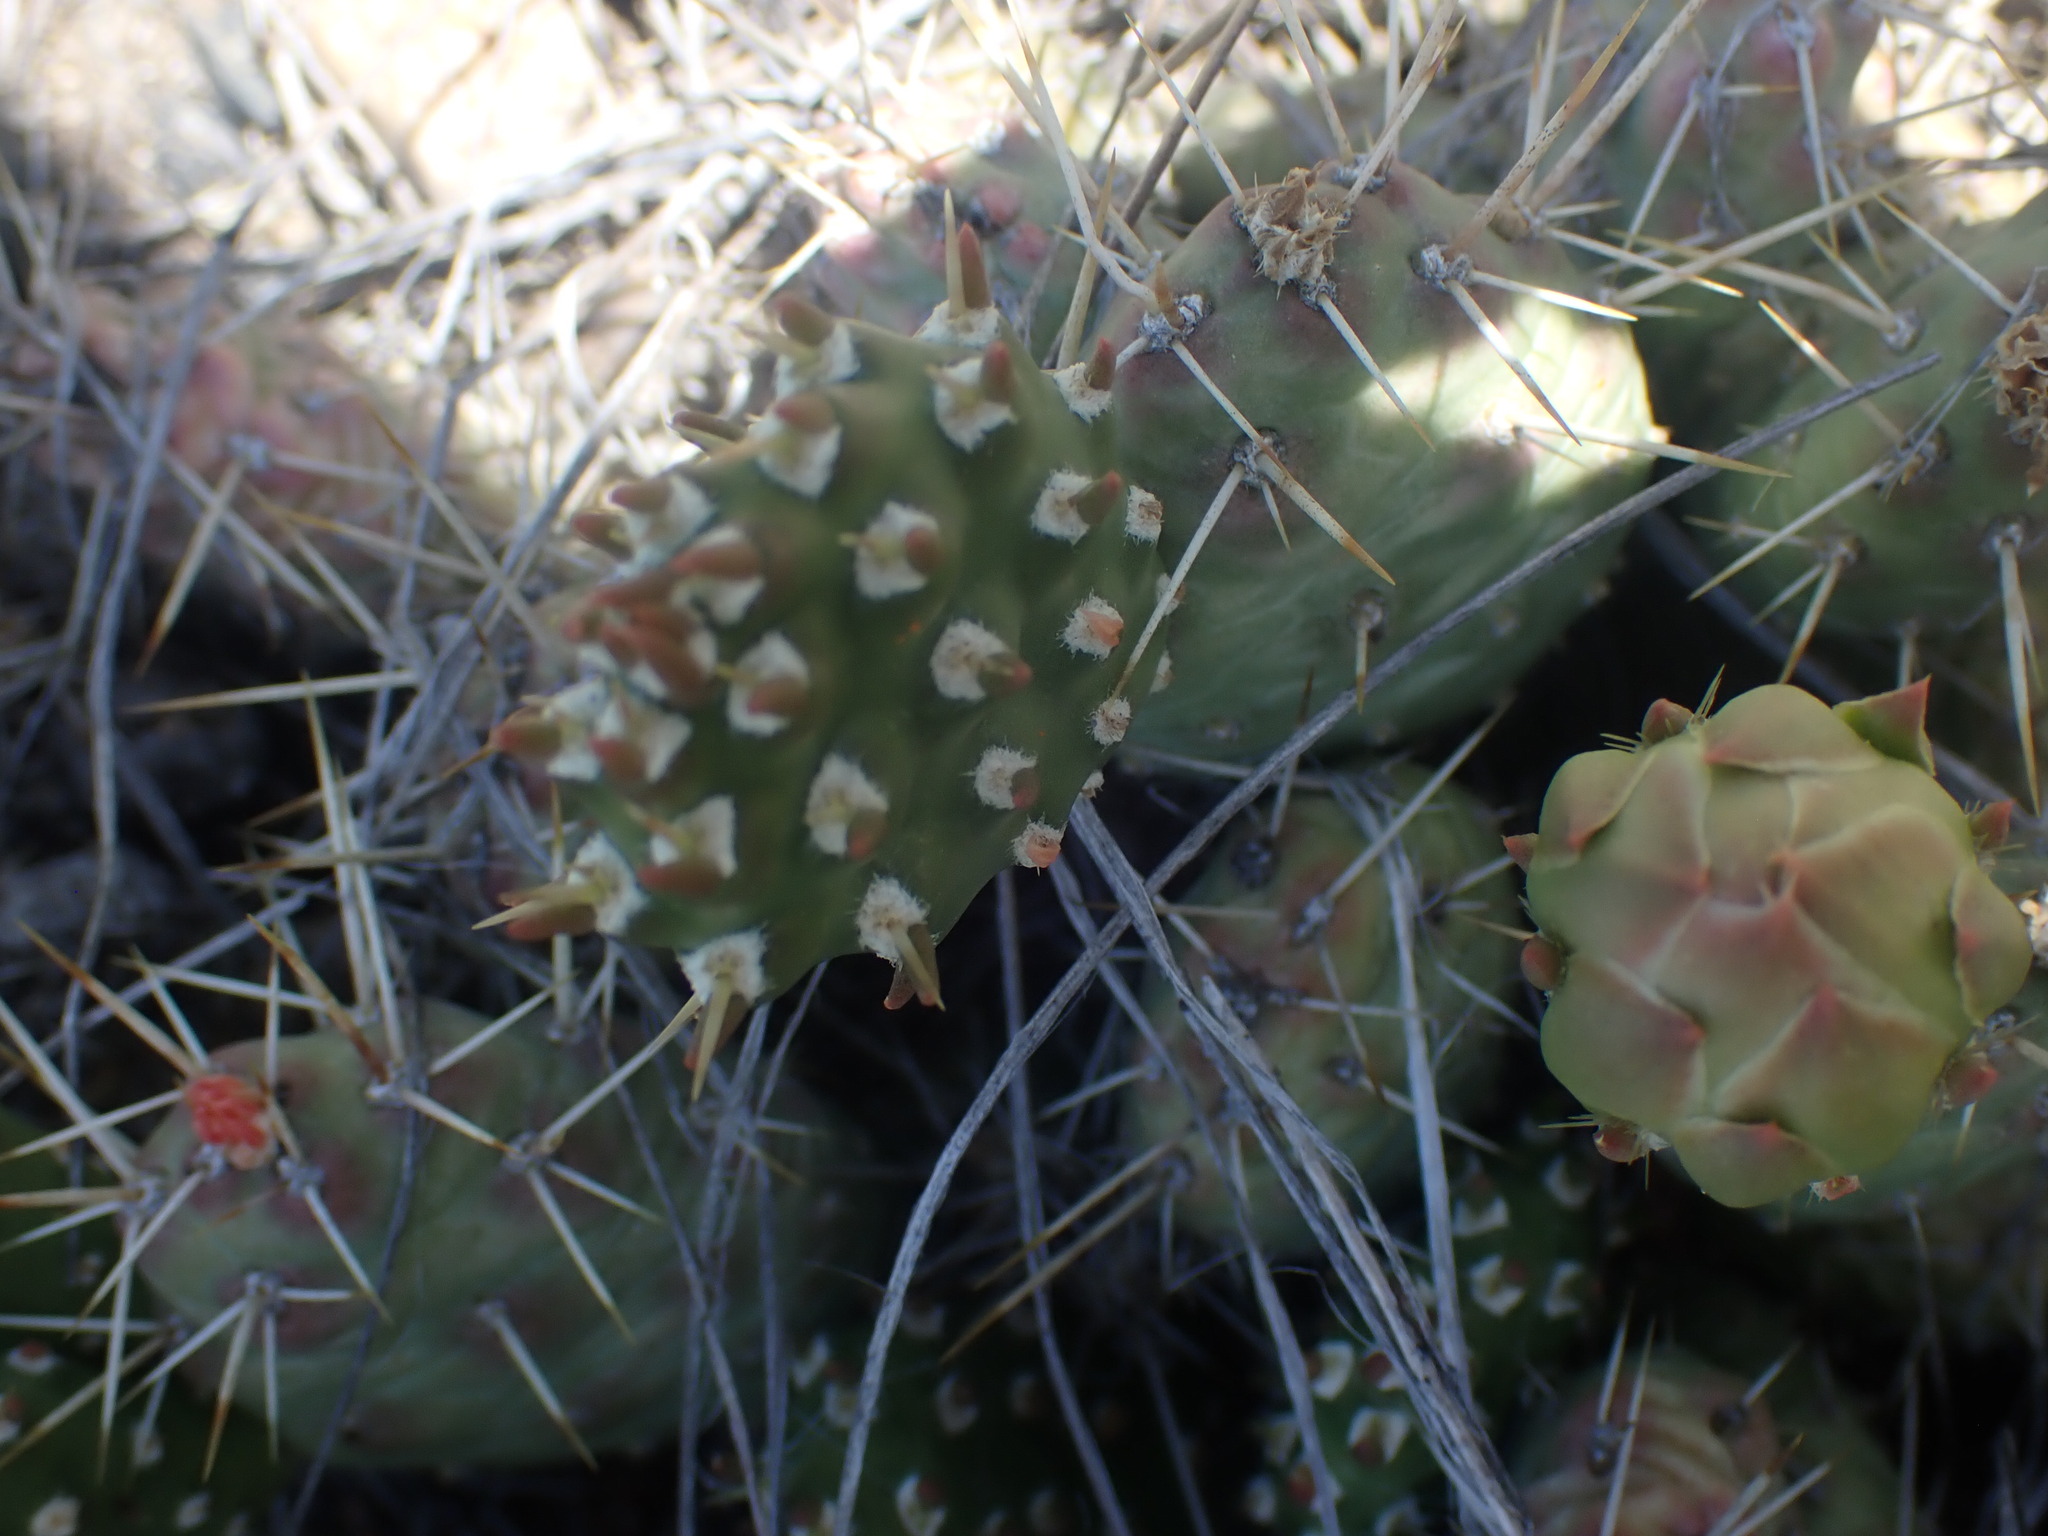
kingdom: Plantae
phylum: Tracheophyta
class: Magnoliopsida
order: Caryophyllales
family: Cactaceae
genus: Opuntia
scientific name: Opuntia fragilis
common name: Brittle cactus
